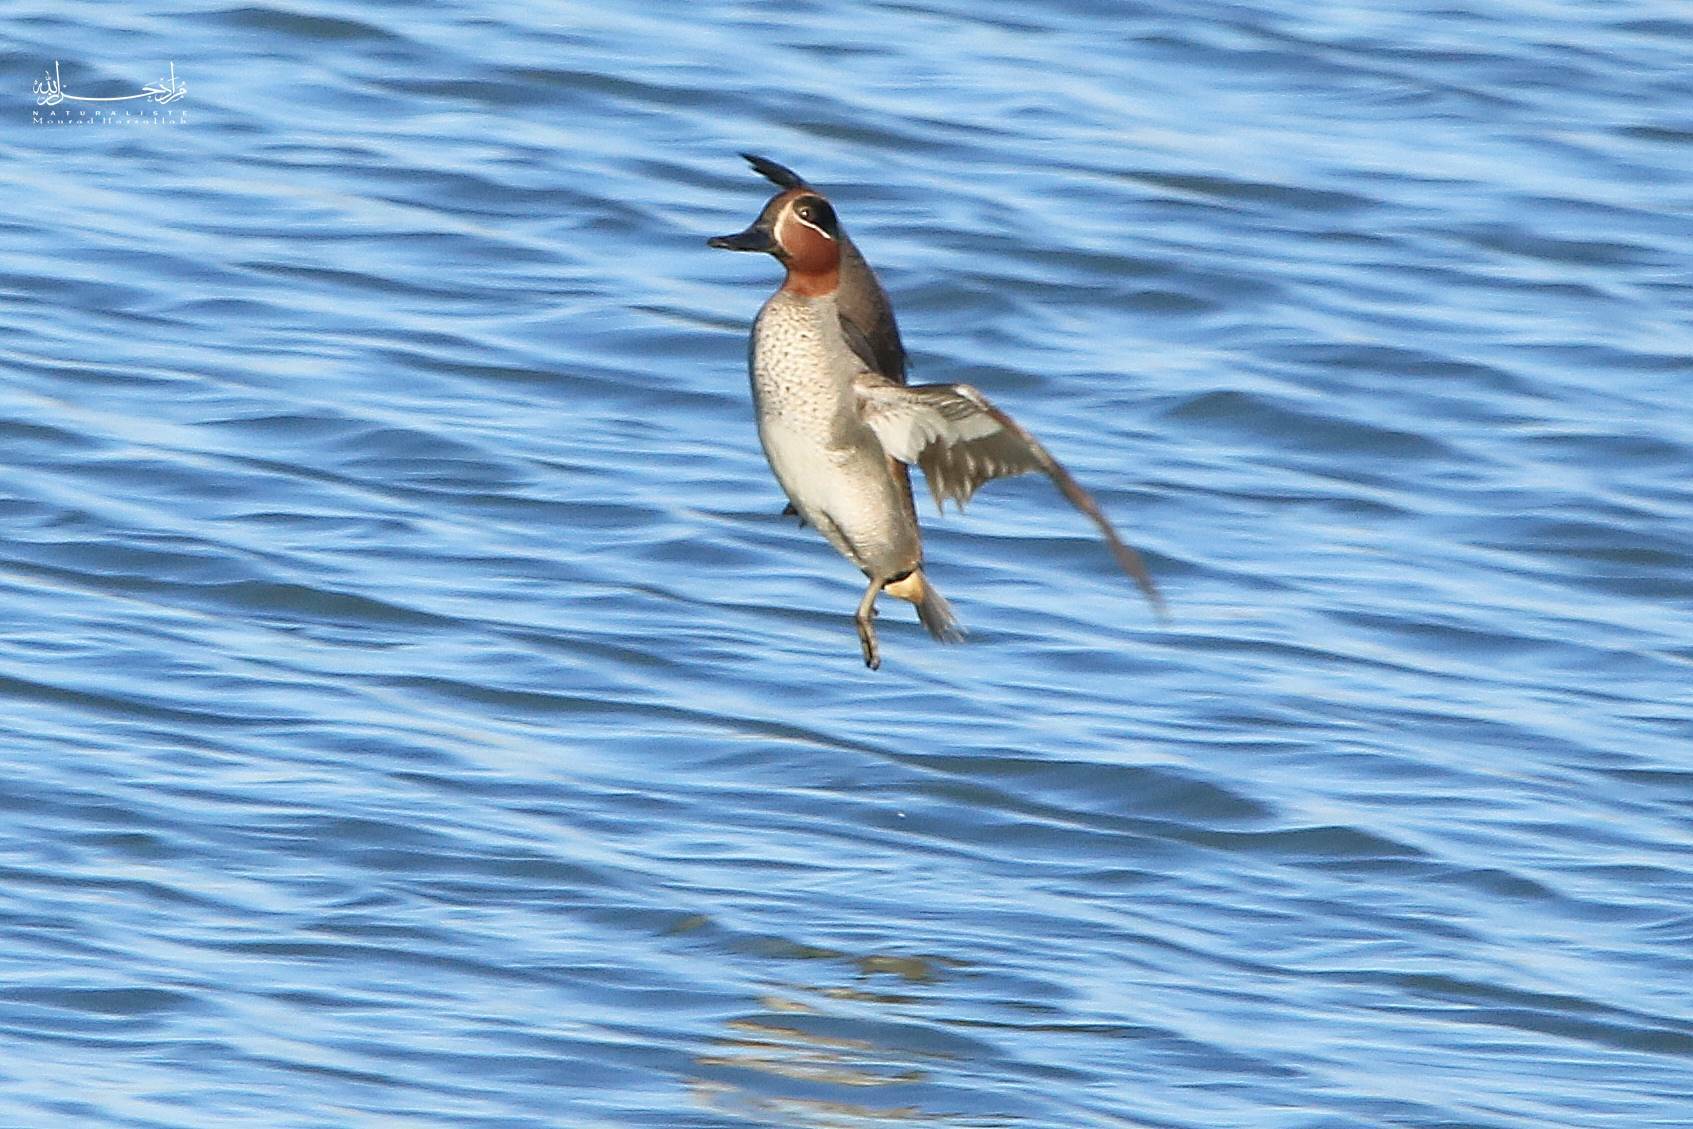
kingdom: Animalia
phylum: Chordata
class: Aves
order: Anseriformes
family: Anatidae
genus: Anas
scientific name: Anas crecca
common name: Eurasian teal
